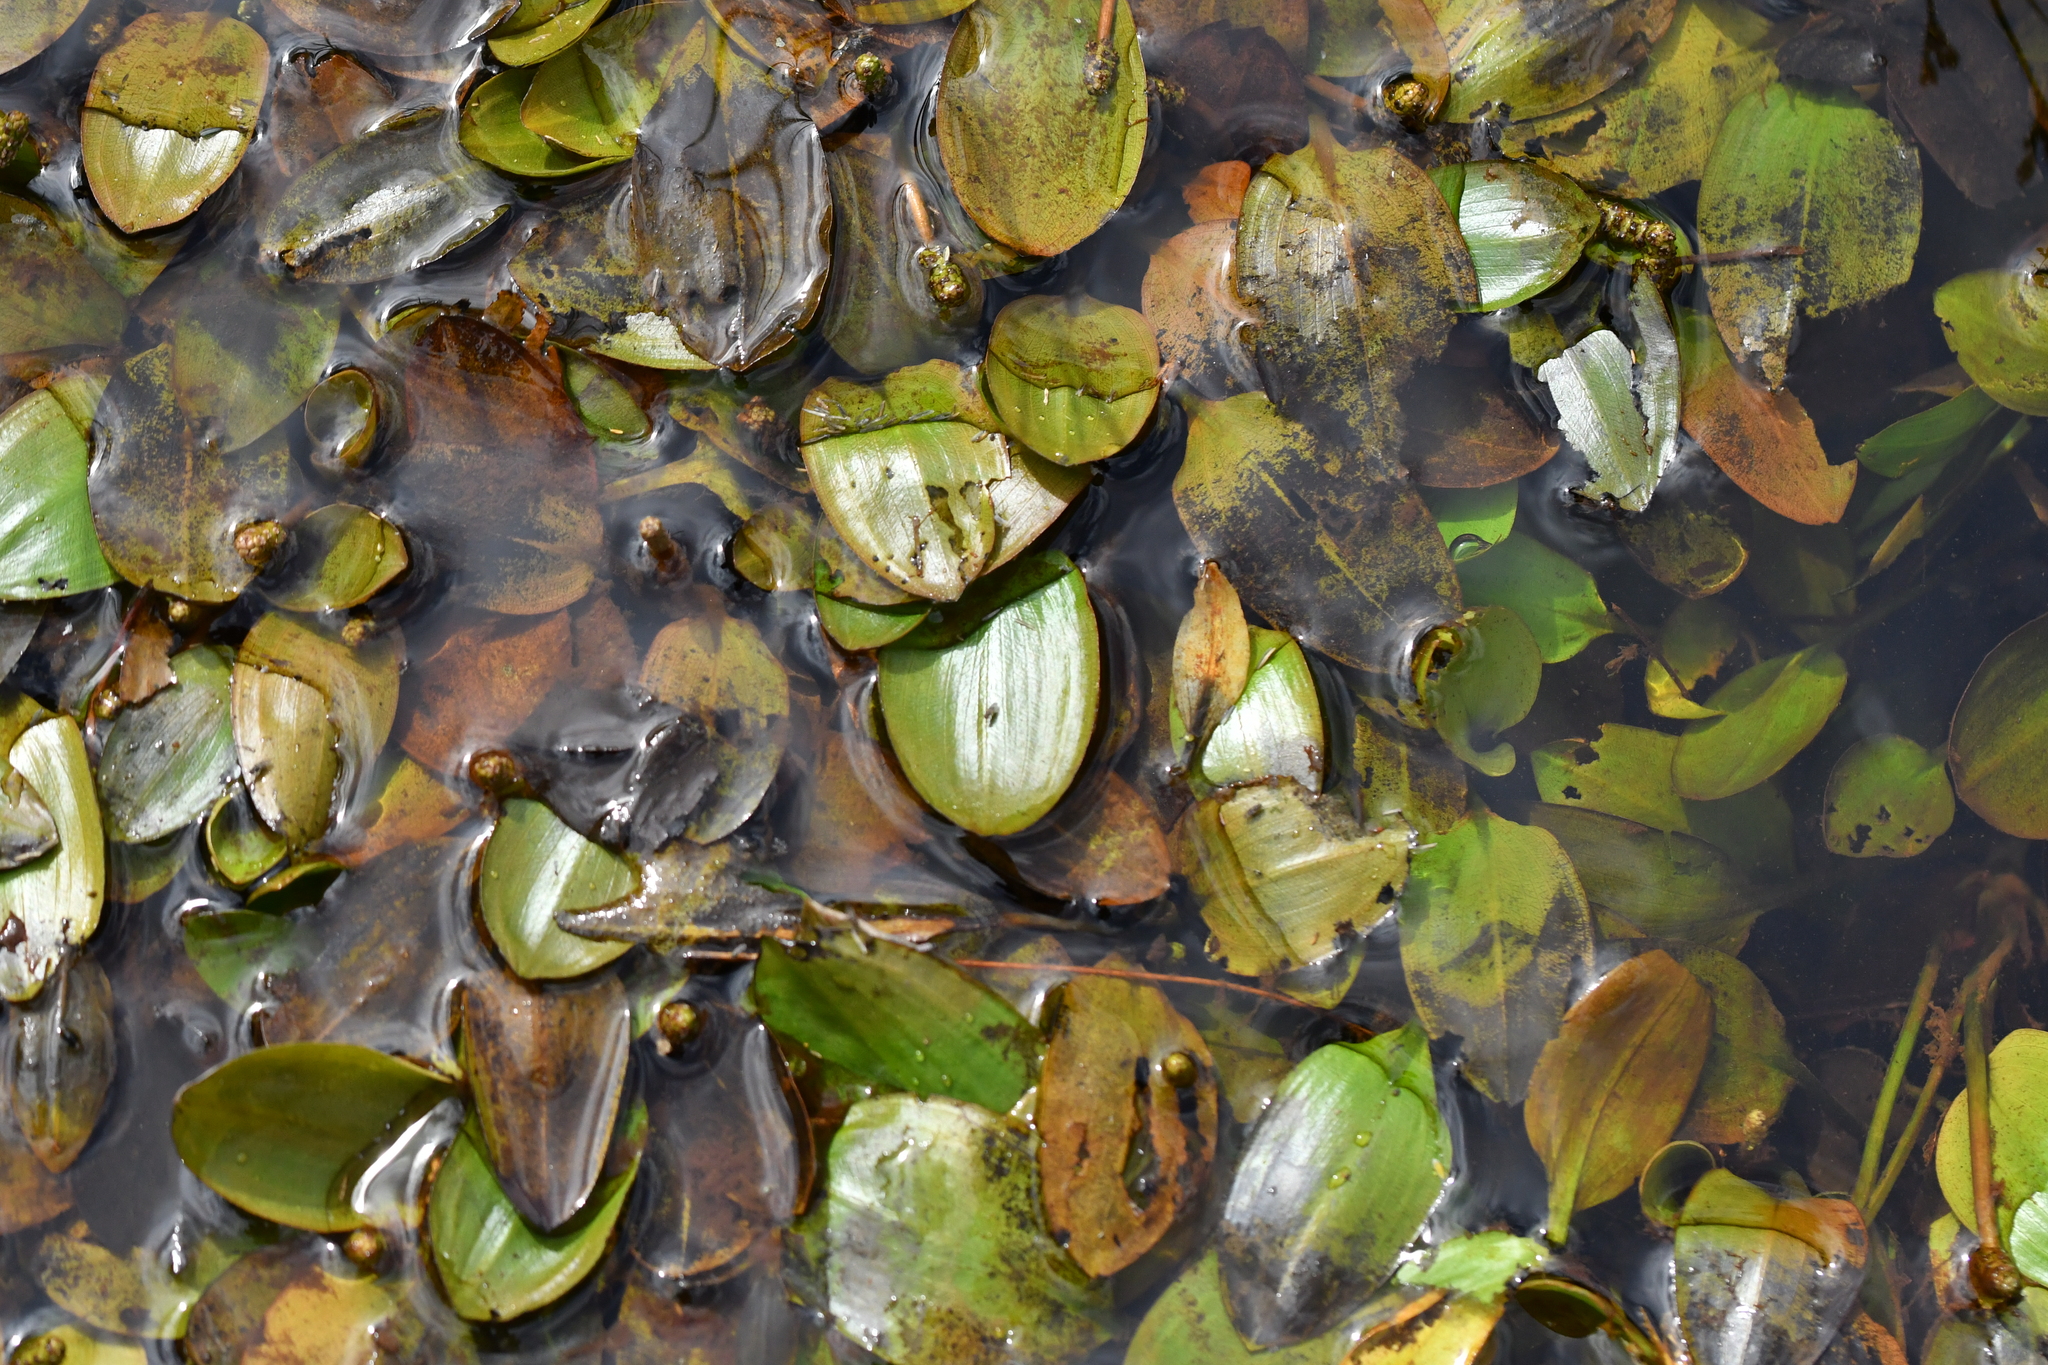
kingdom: Plantae
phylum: Tracheophyta
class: Liliopsida
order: Alismatales
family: Potamogetonaceae
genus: Potamogeton
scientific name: Potamogeton cheesemanii
